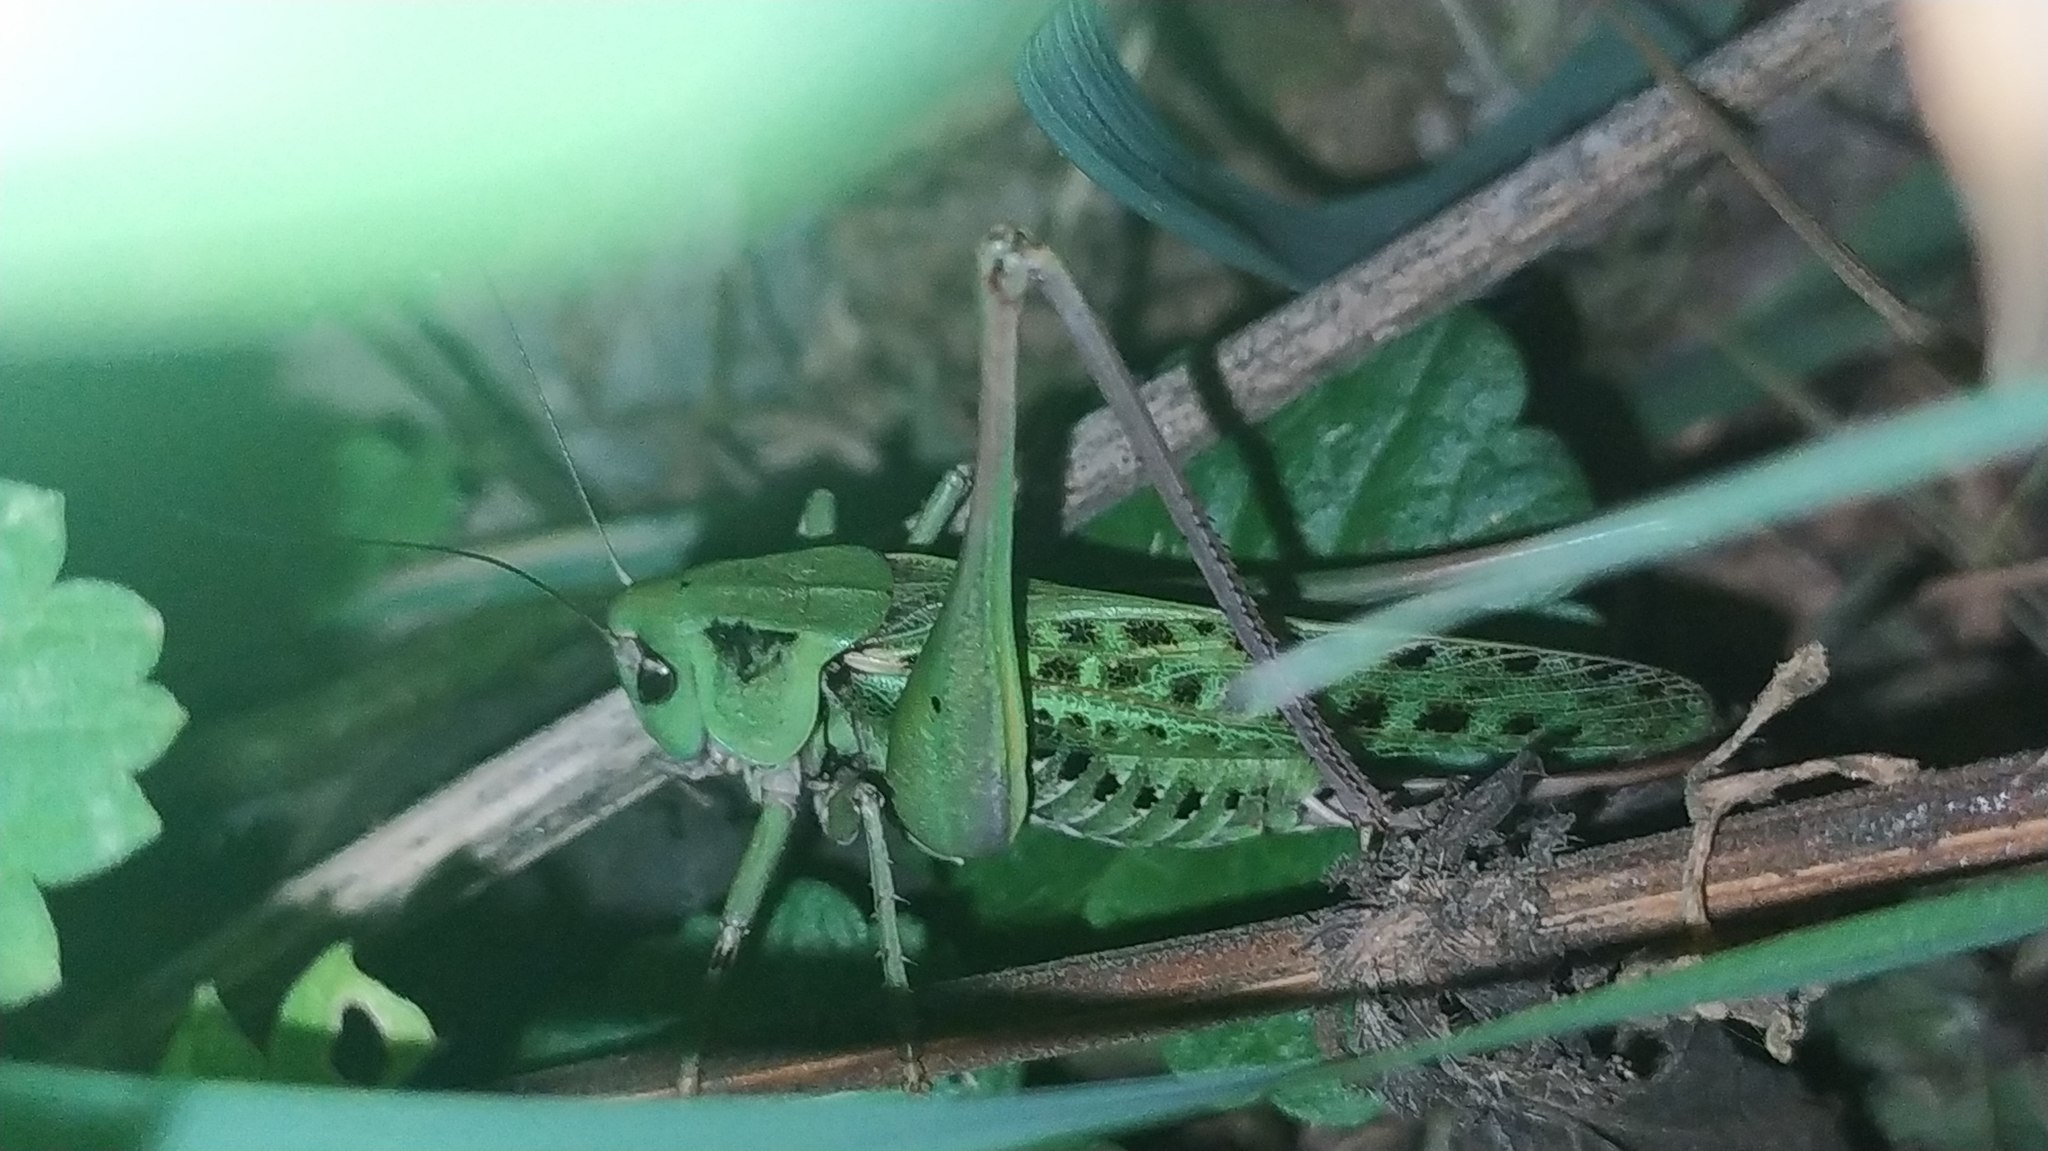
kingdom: Animalia
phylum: Arthropoda
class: Insecta
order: Orthoptera
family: Tettigoniidae
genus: Decticus
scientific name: Decticus verrucivorus
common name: Wart-biter
